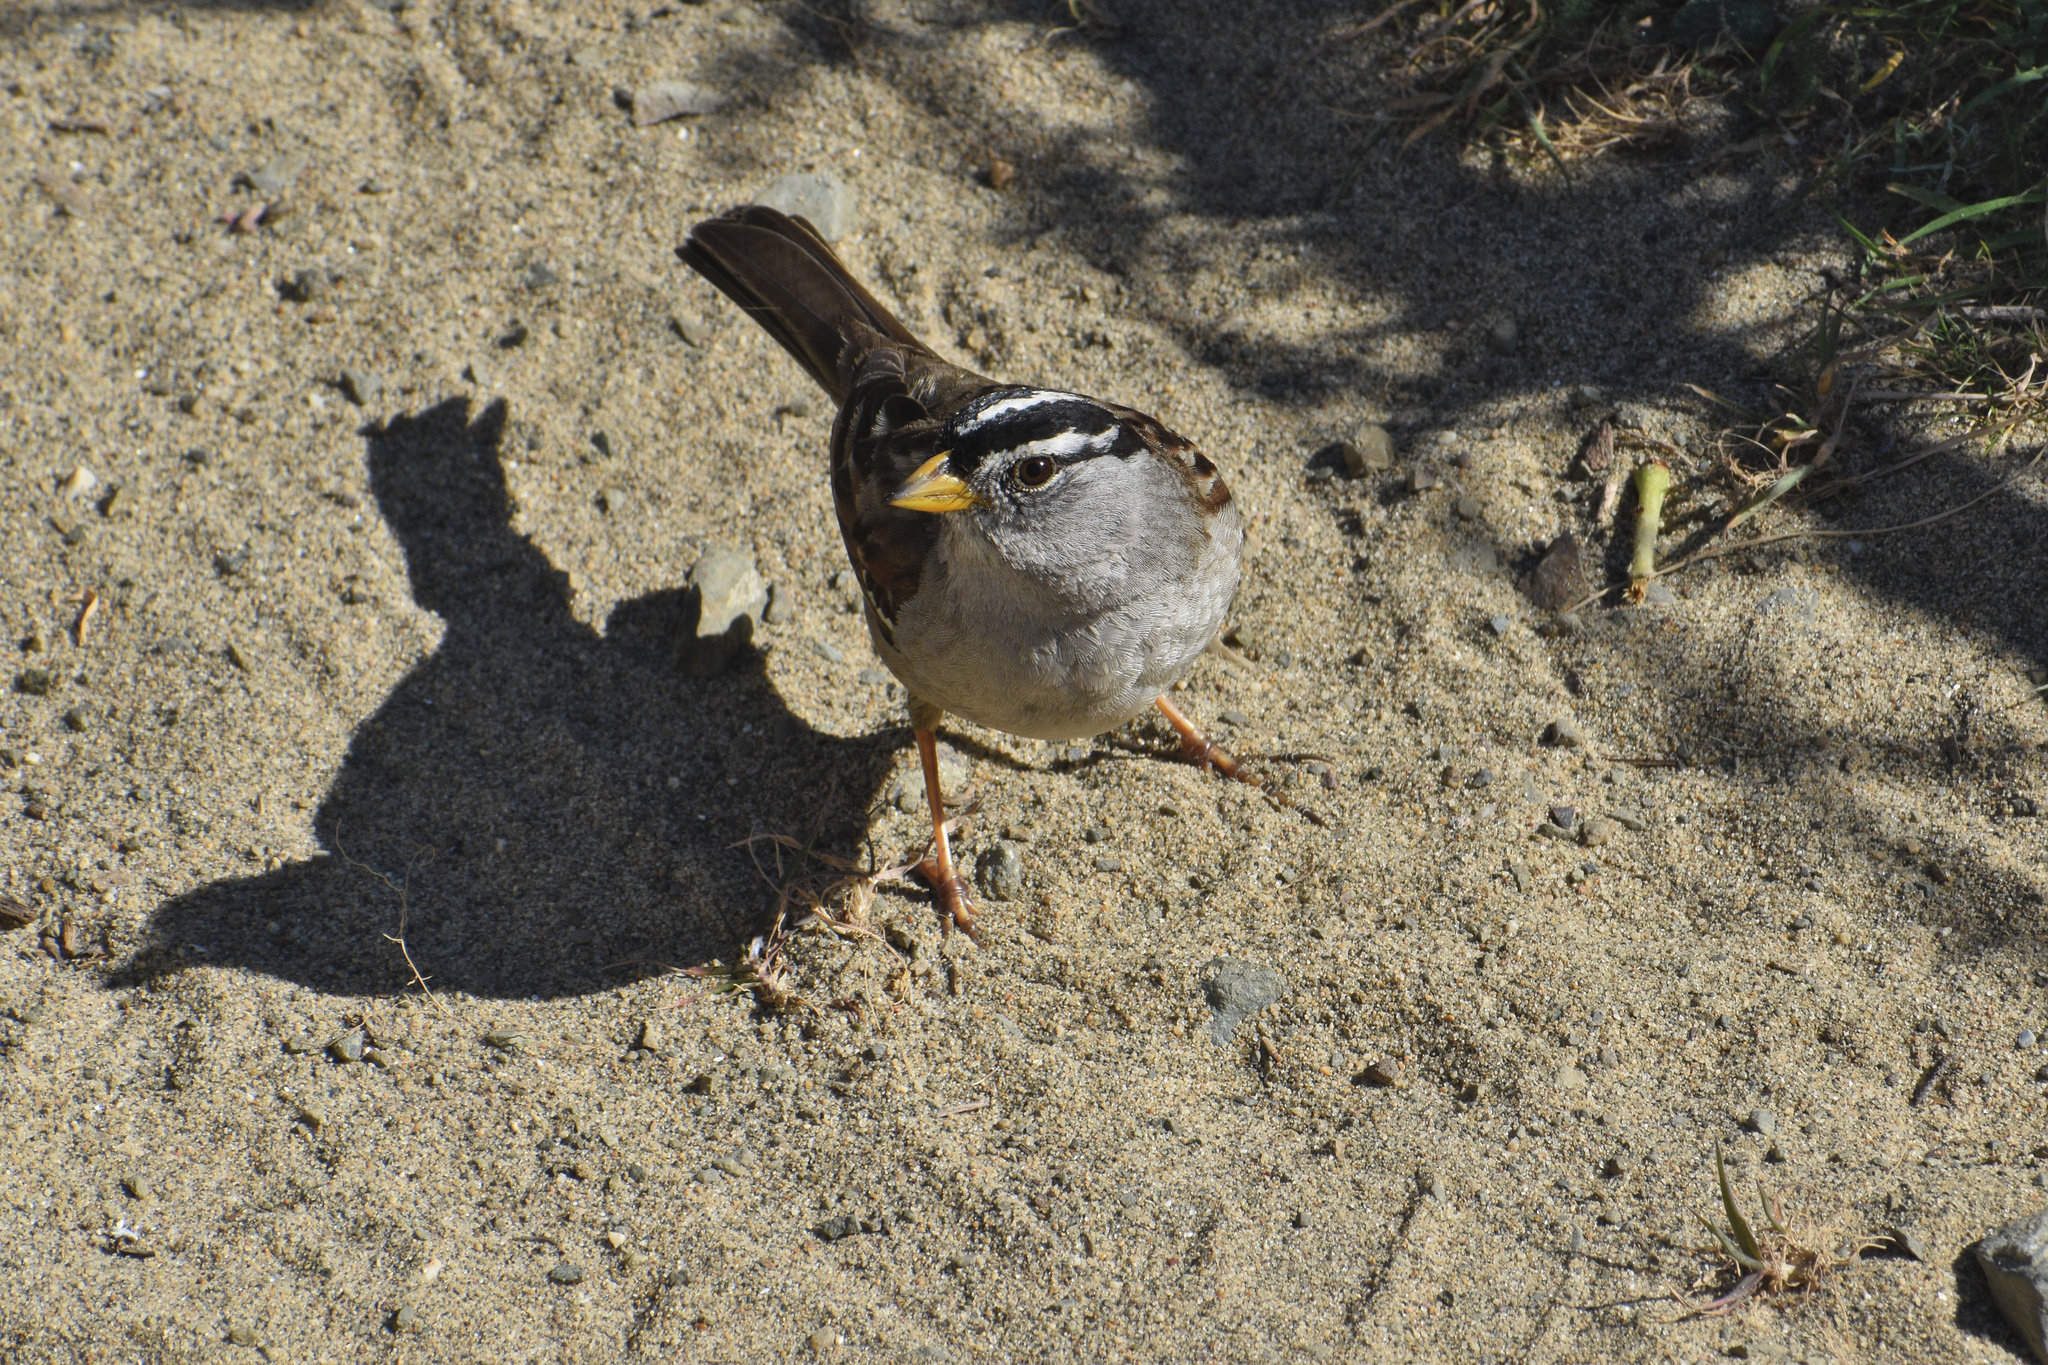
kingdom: Animalia
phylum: Chordata
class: Aves
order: Passeriformes
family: Passerellidae
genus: Zonotrichia
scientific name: Zonotrichia leucophrys
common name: White-crowned sparrow
